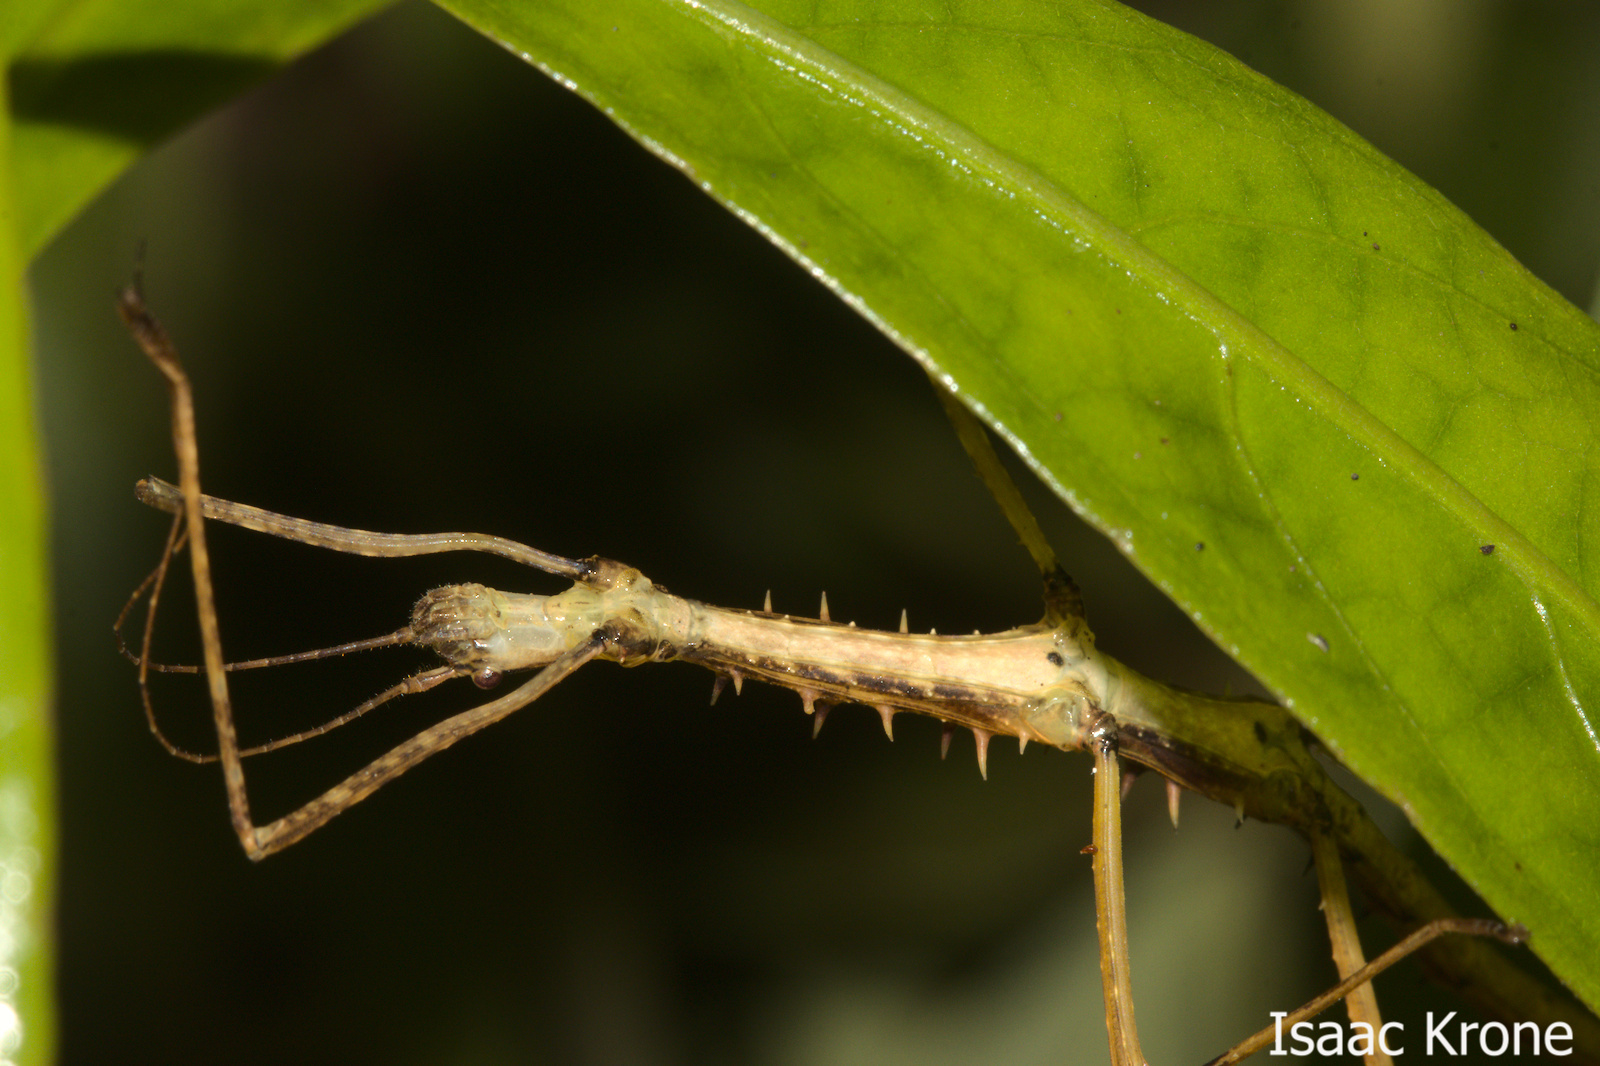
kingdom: Animalia
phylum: Arthropoda
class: Insecta
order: Phasmida
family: Lonchodidae
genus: Acanthomenexenus
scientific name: Acanthomenexenus polyacanthus
